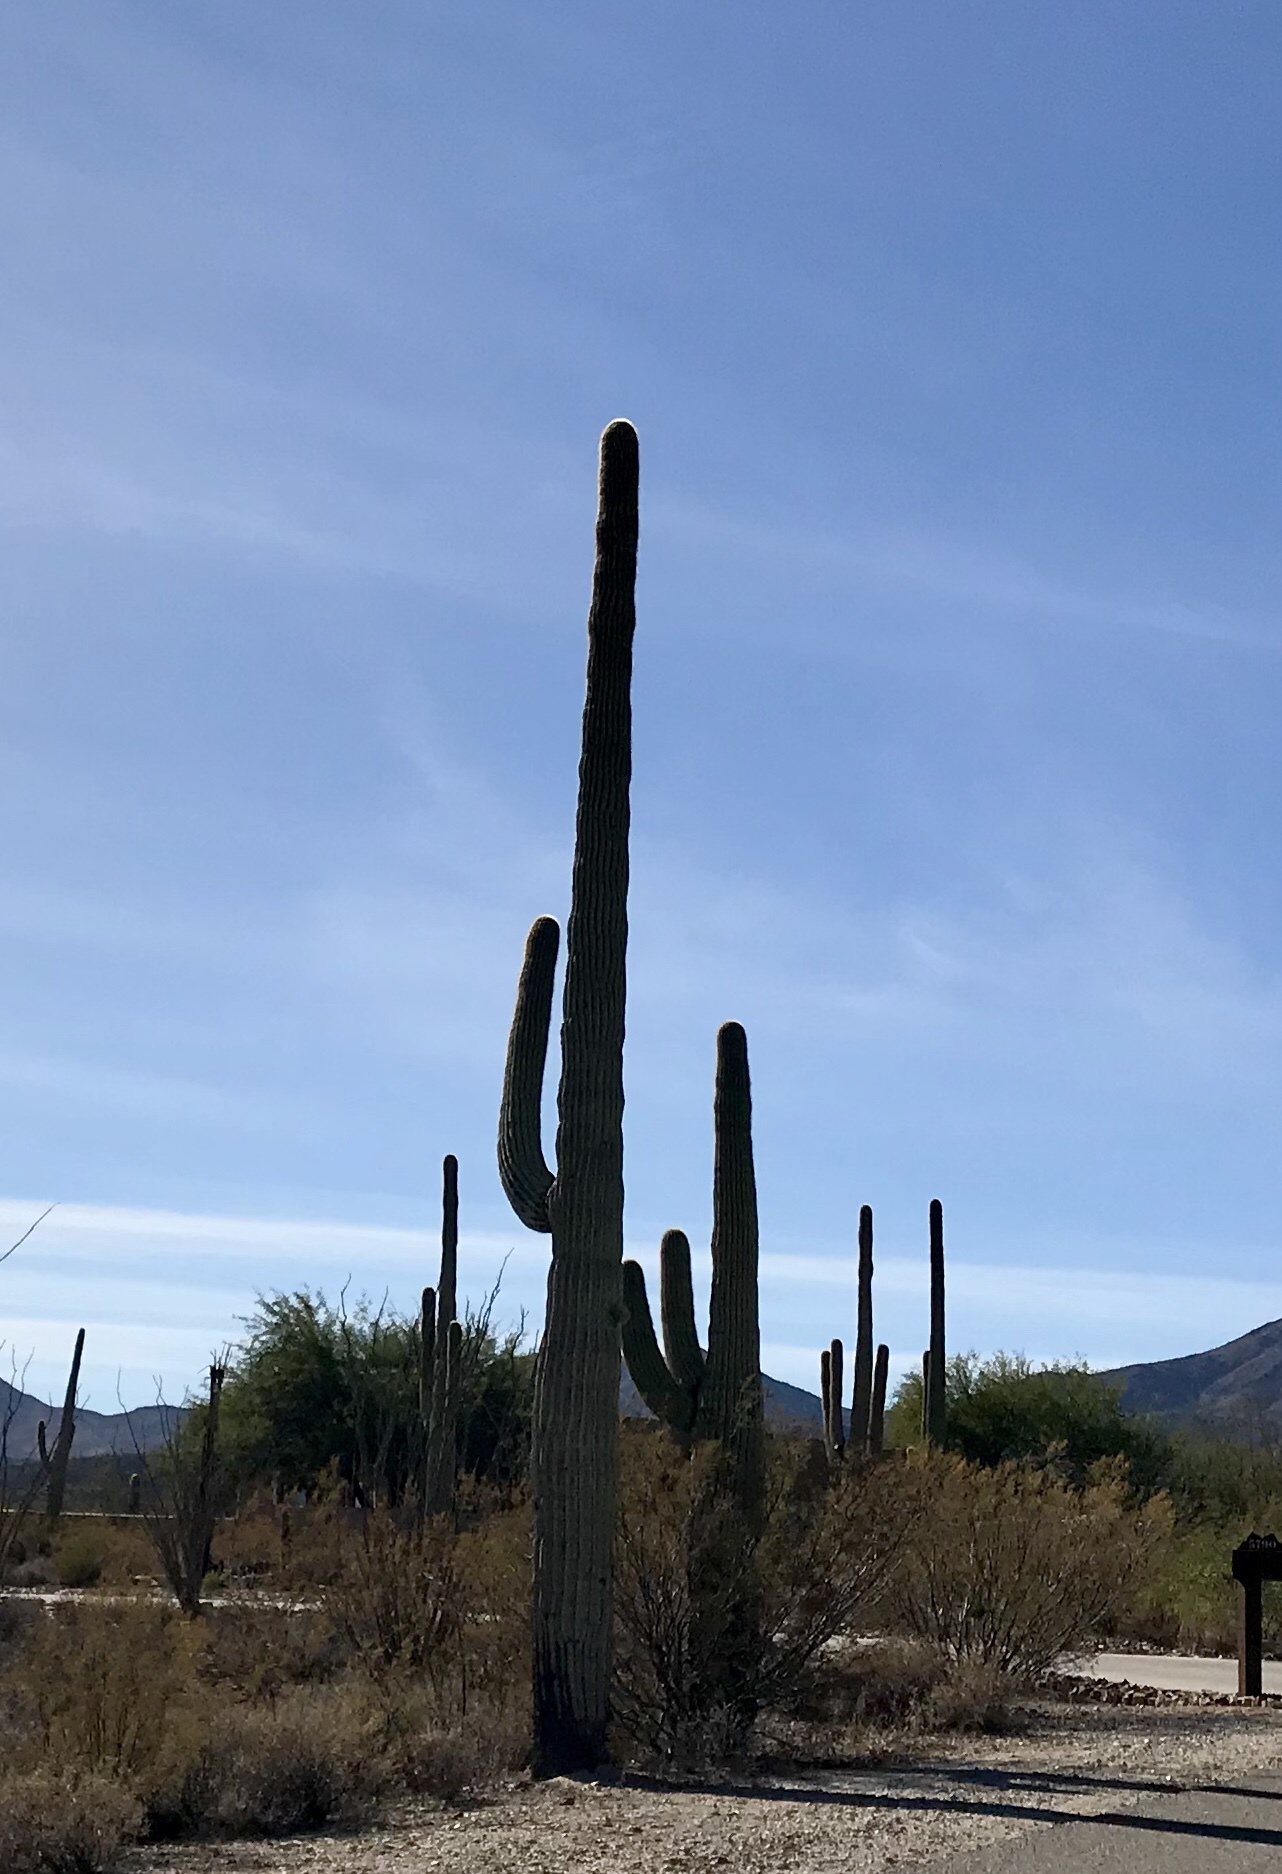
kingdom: Plantae
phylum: Tracheophyta
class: Magnoliopsida
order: Caryophyllales
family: Cactaceae
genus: Carnegiea
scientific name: Carnegiea gigantea
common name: Saguaro
